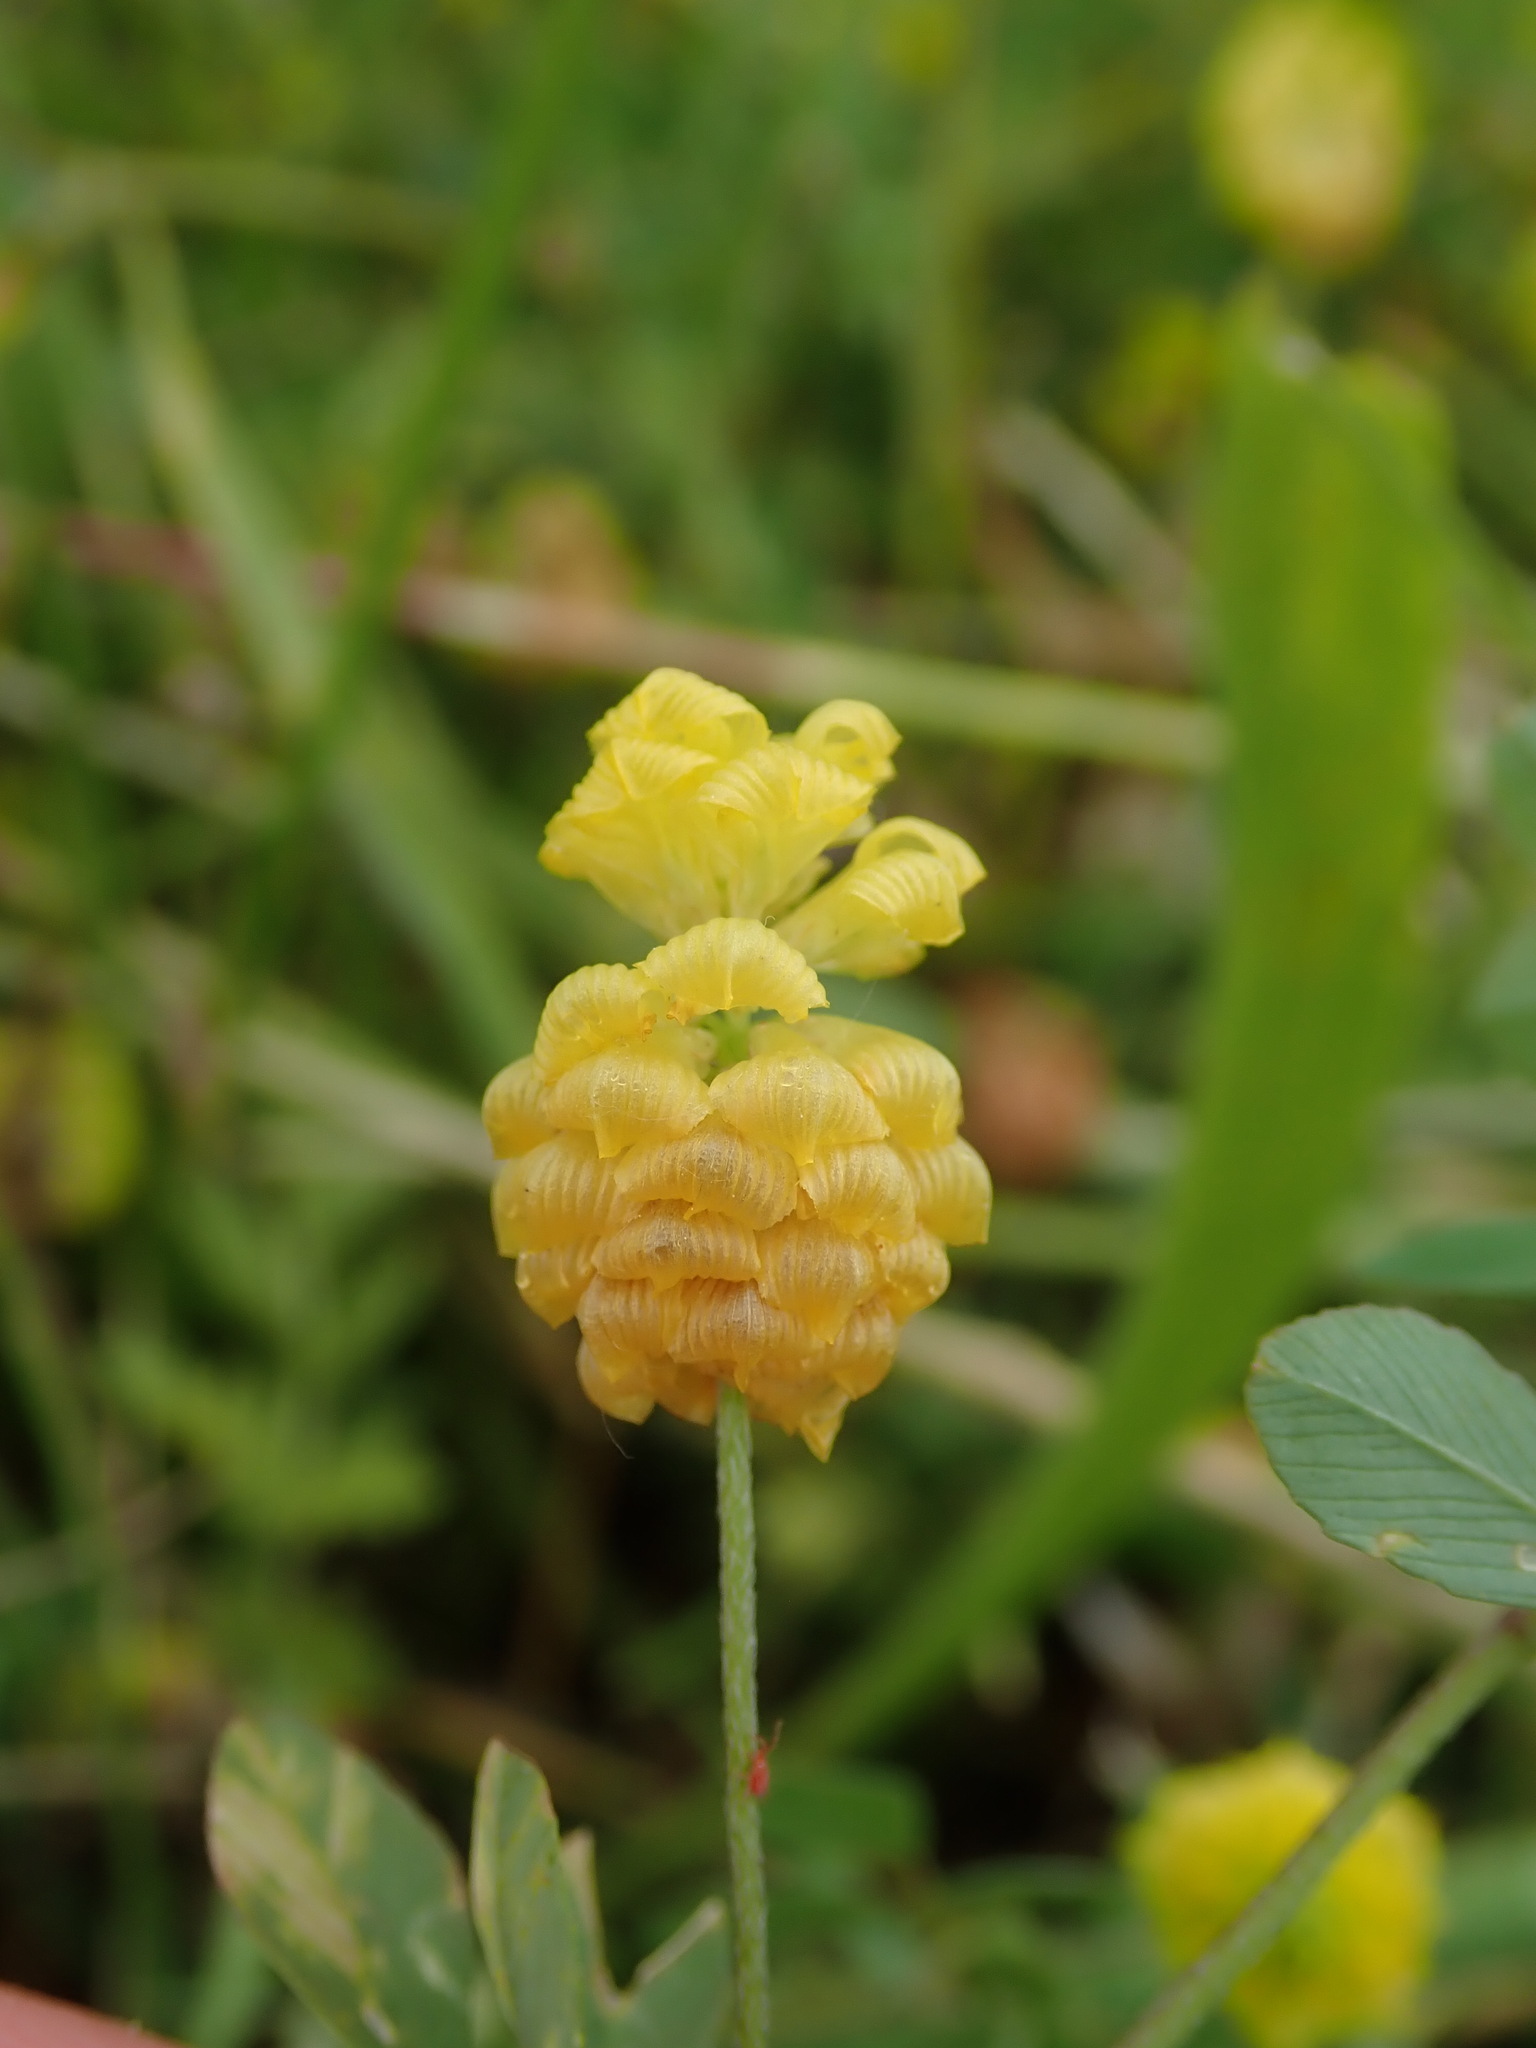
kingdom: Plantae
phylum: Tracheophyta
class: Magnoliopsida
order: Fabales
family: Fabaceae
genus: Trifolium
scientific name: Trifolium campestre
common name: Field clover
